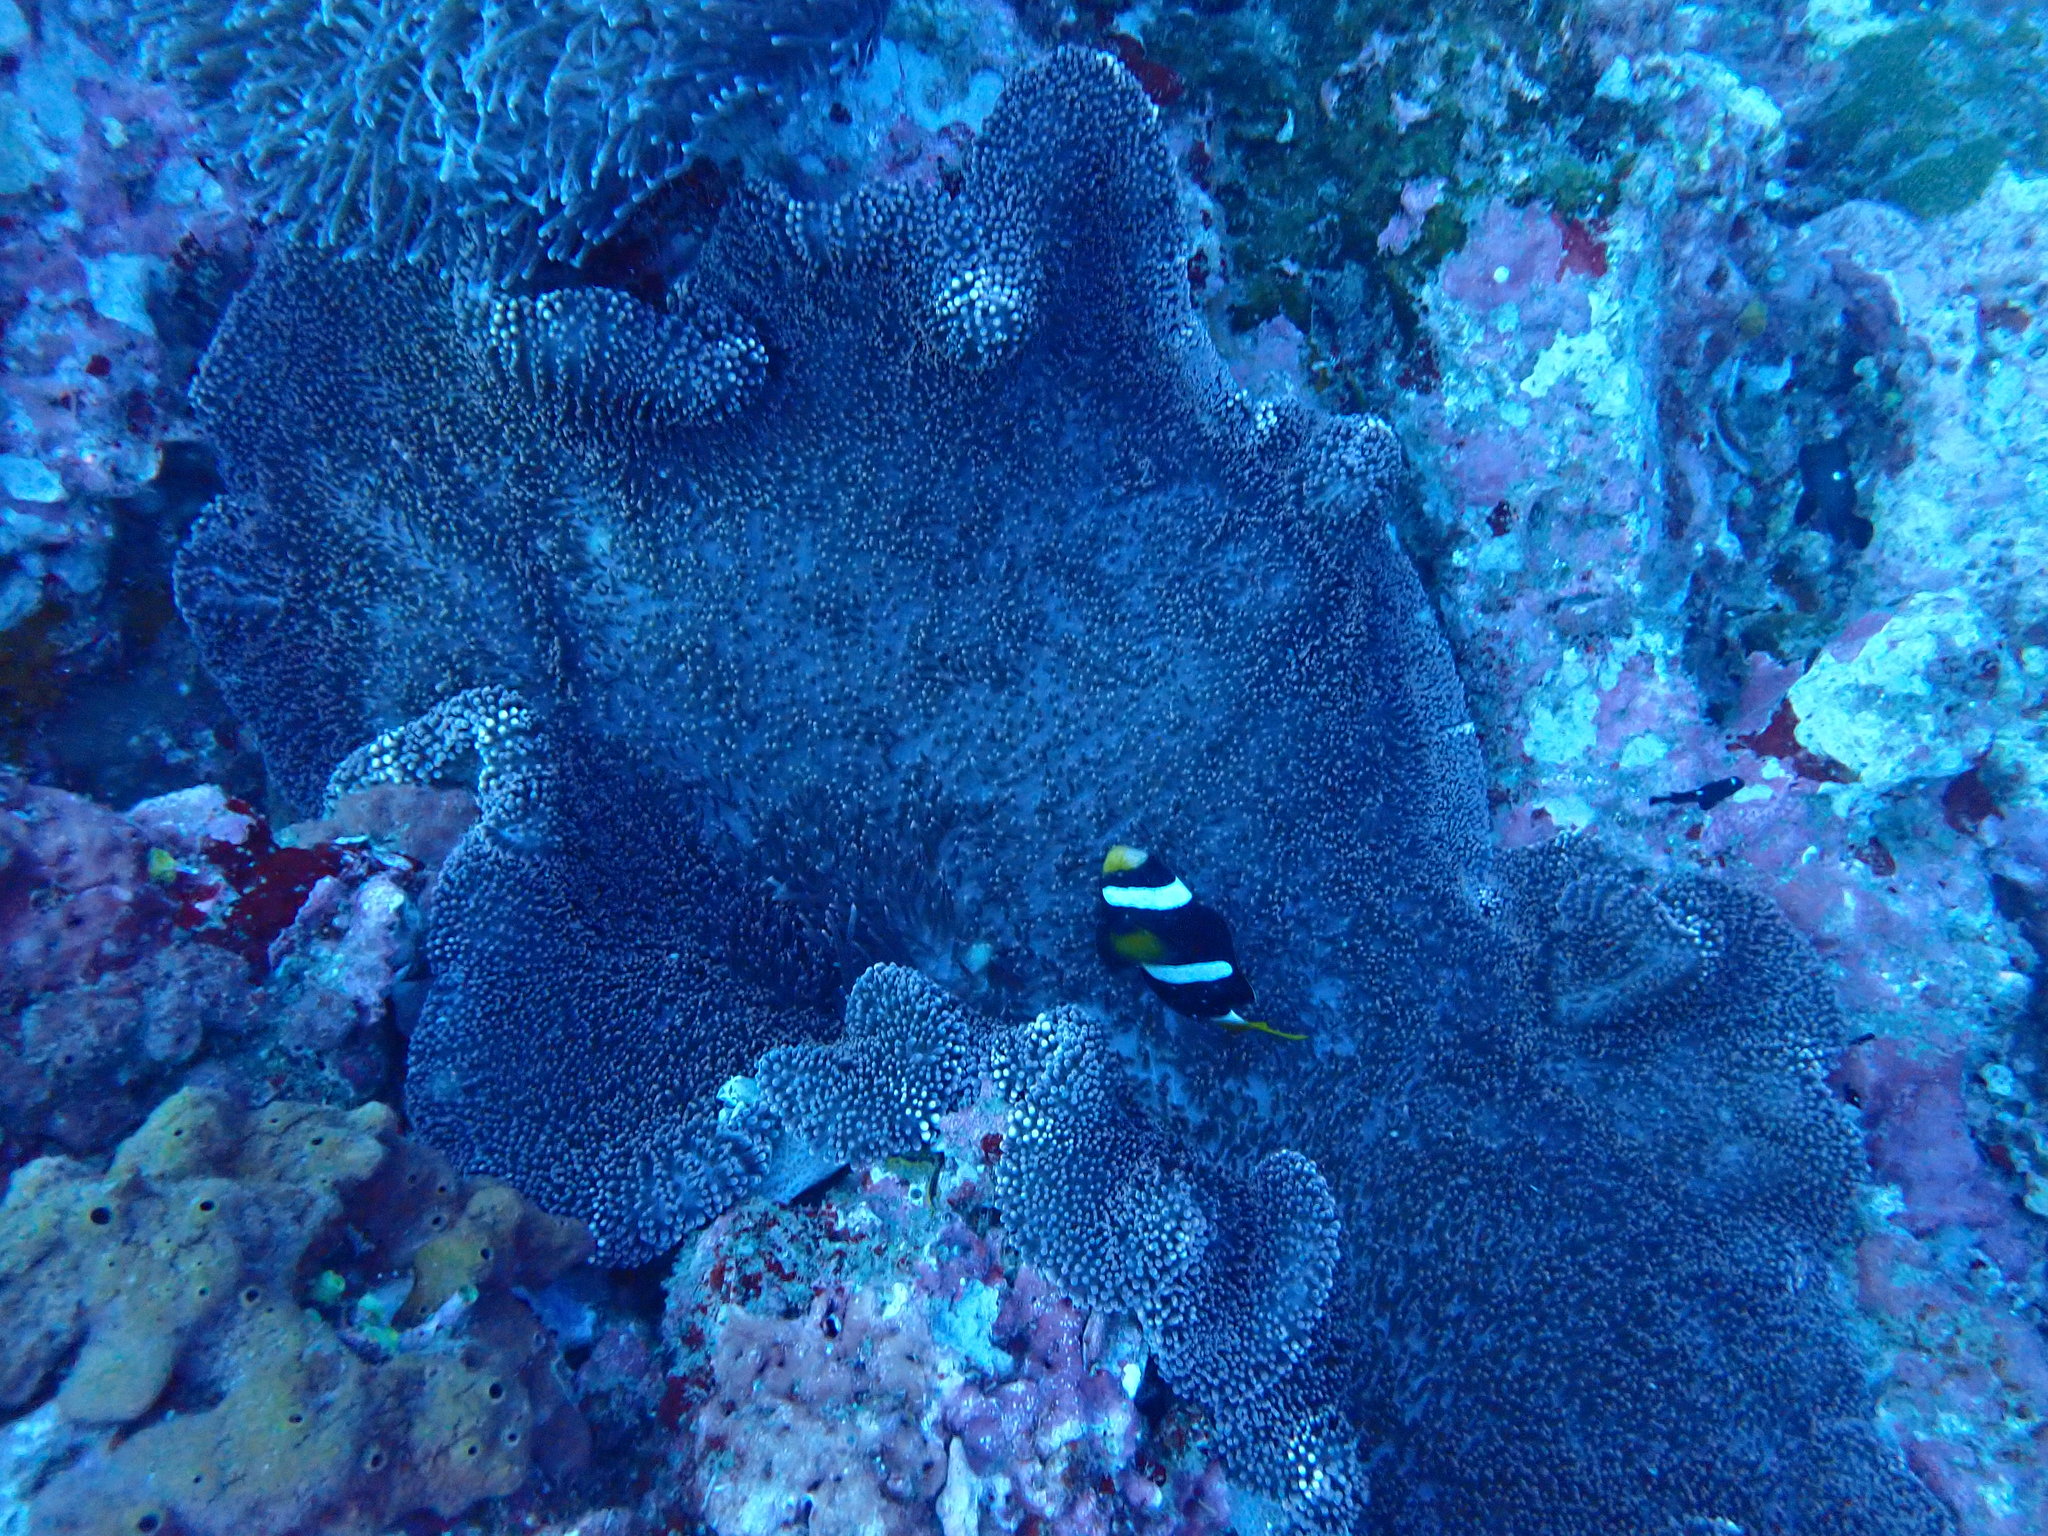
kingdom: Animalia
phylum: Chordata
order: Perciformes
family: Pomacentridae
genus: Amphiprion
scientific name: Amphiprion clarkii
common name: Clark's anemonefish
